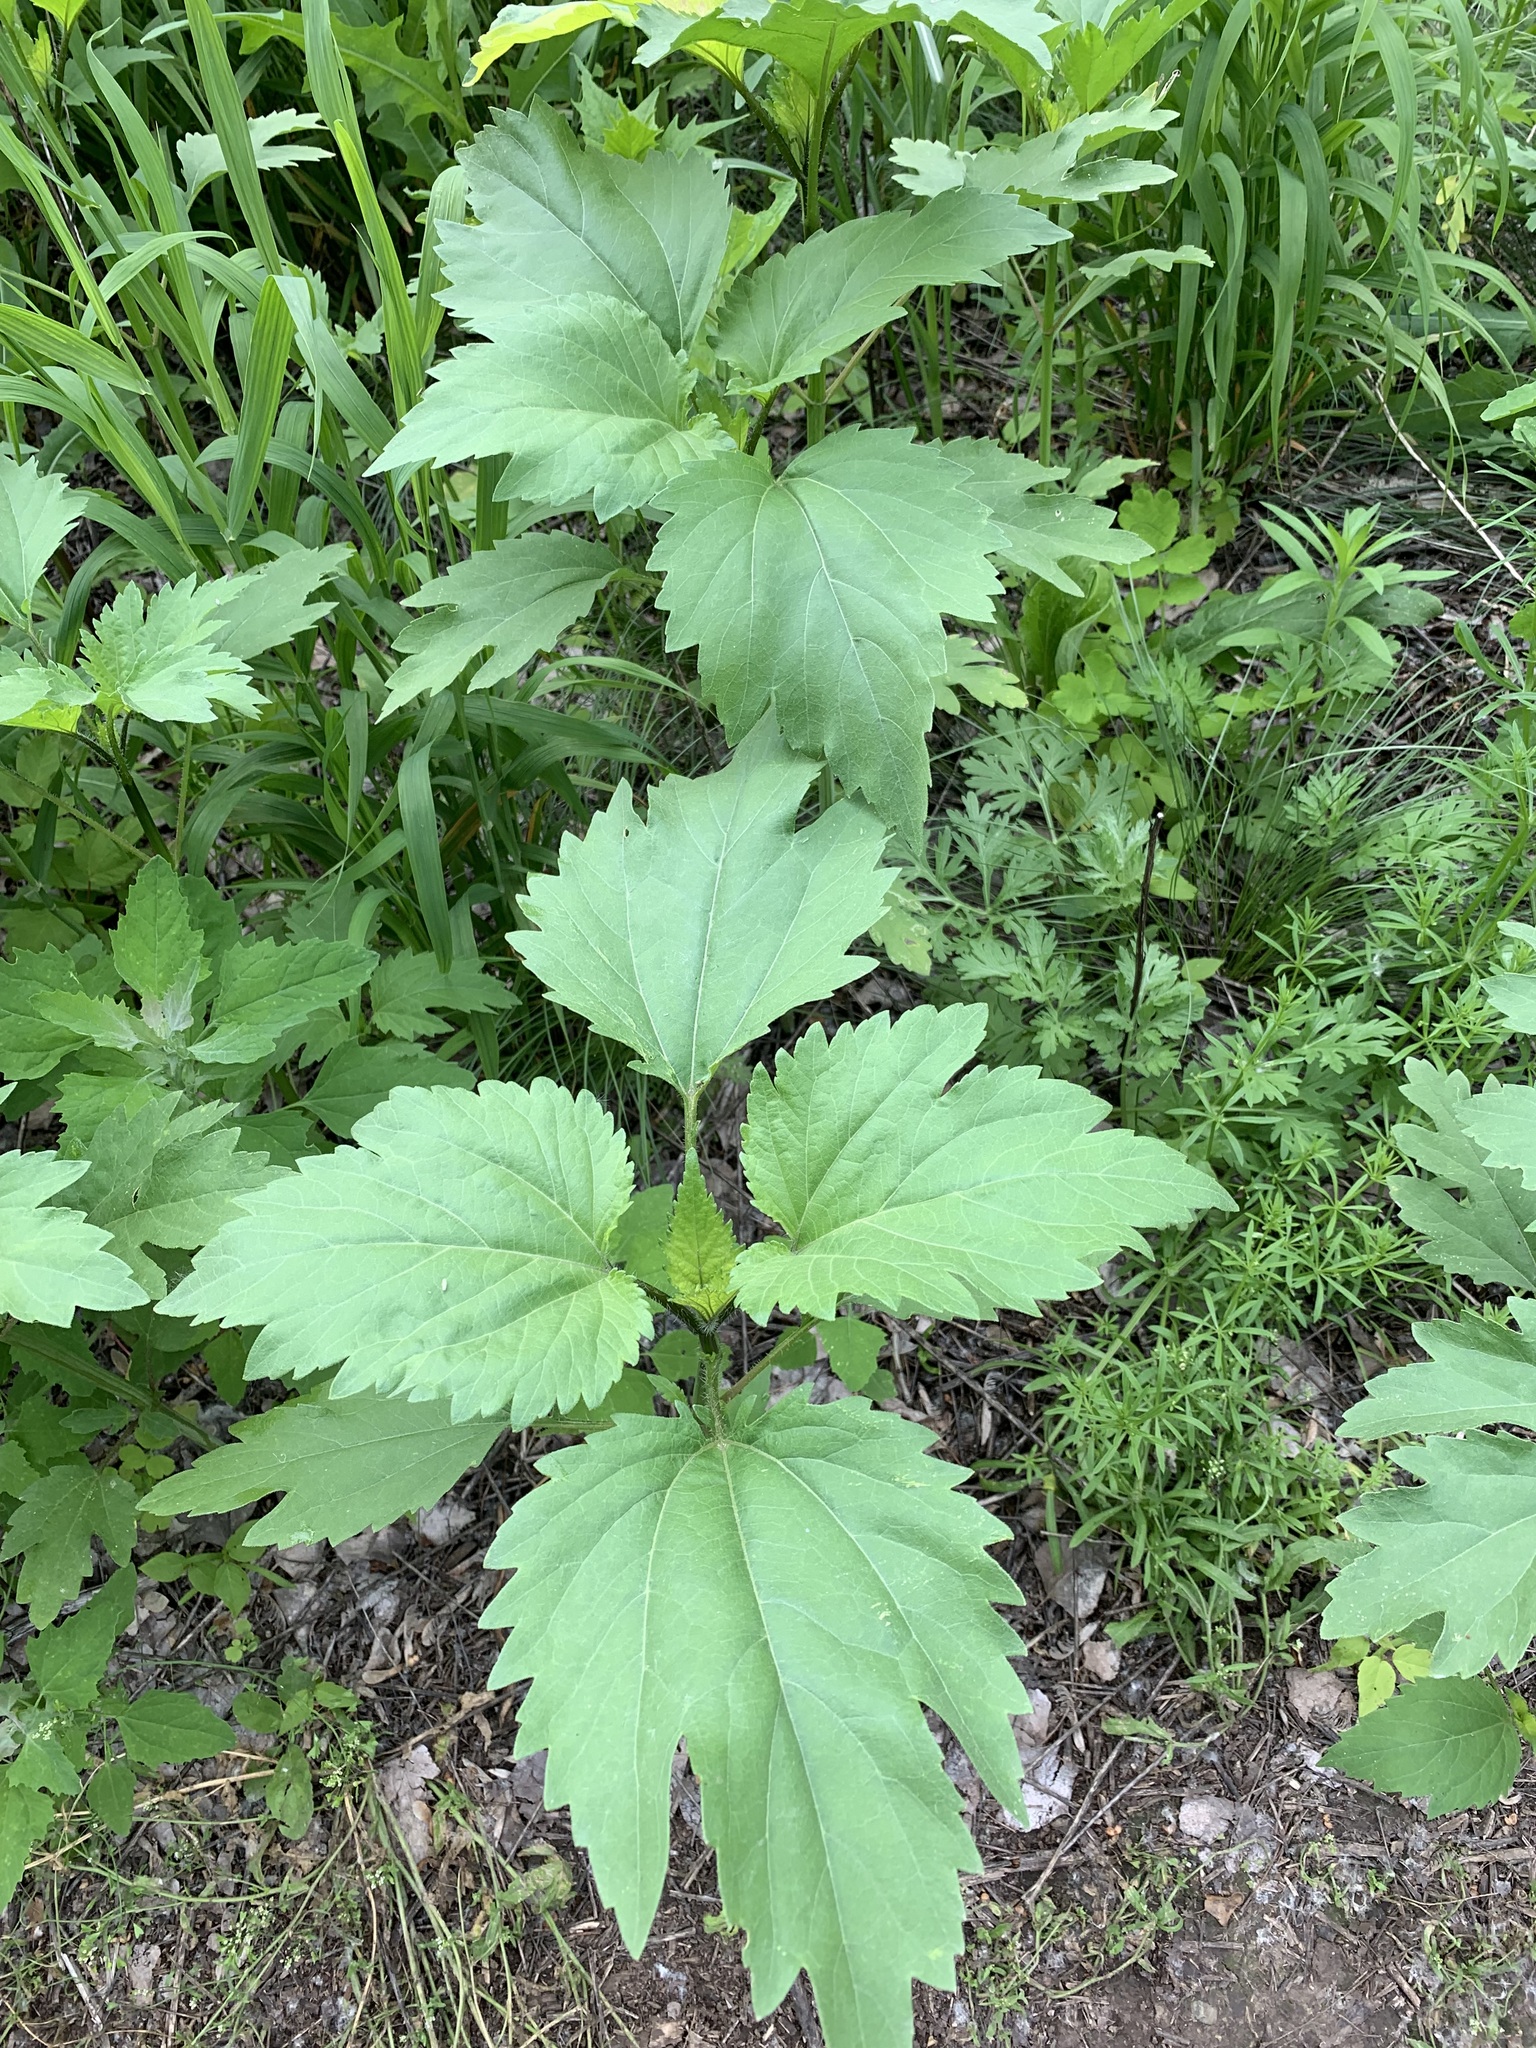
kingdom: Plantae
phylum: Tracheophyta
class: Magnoliopsida
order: Asterales
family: Asteraceae
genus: Cyclachaena
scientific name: Cyclachaena xanthiifolia
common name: Giant sumpweed
